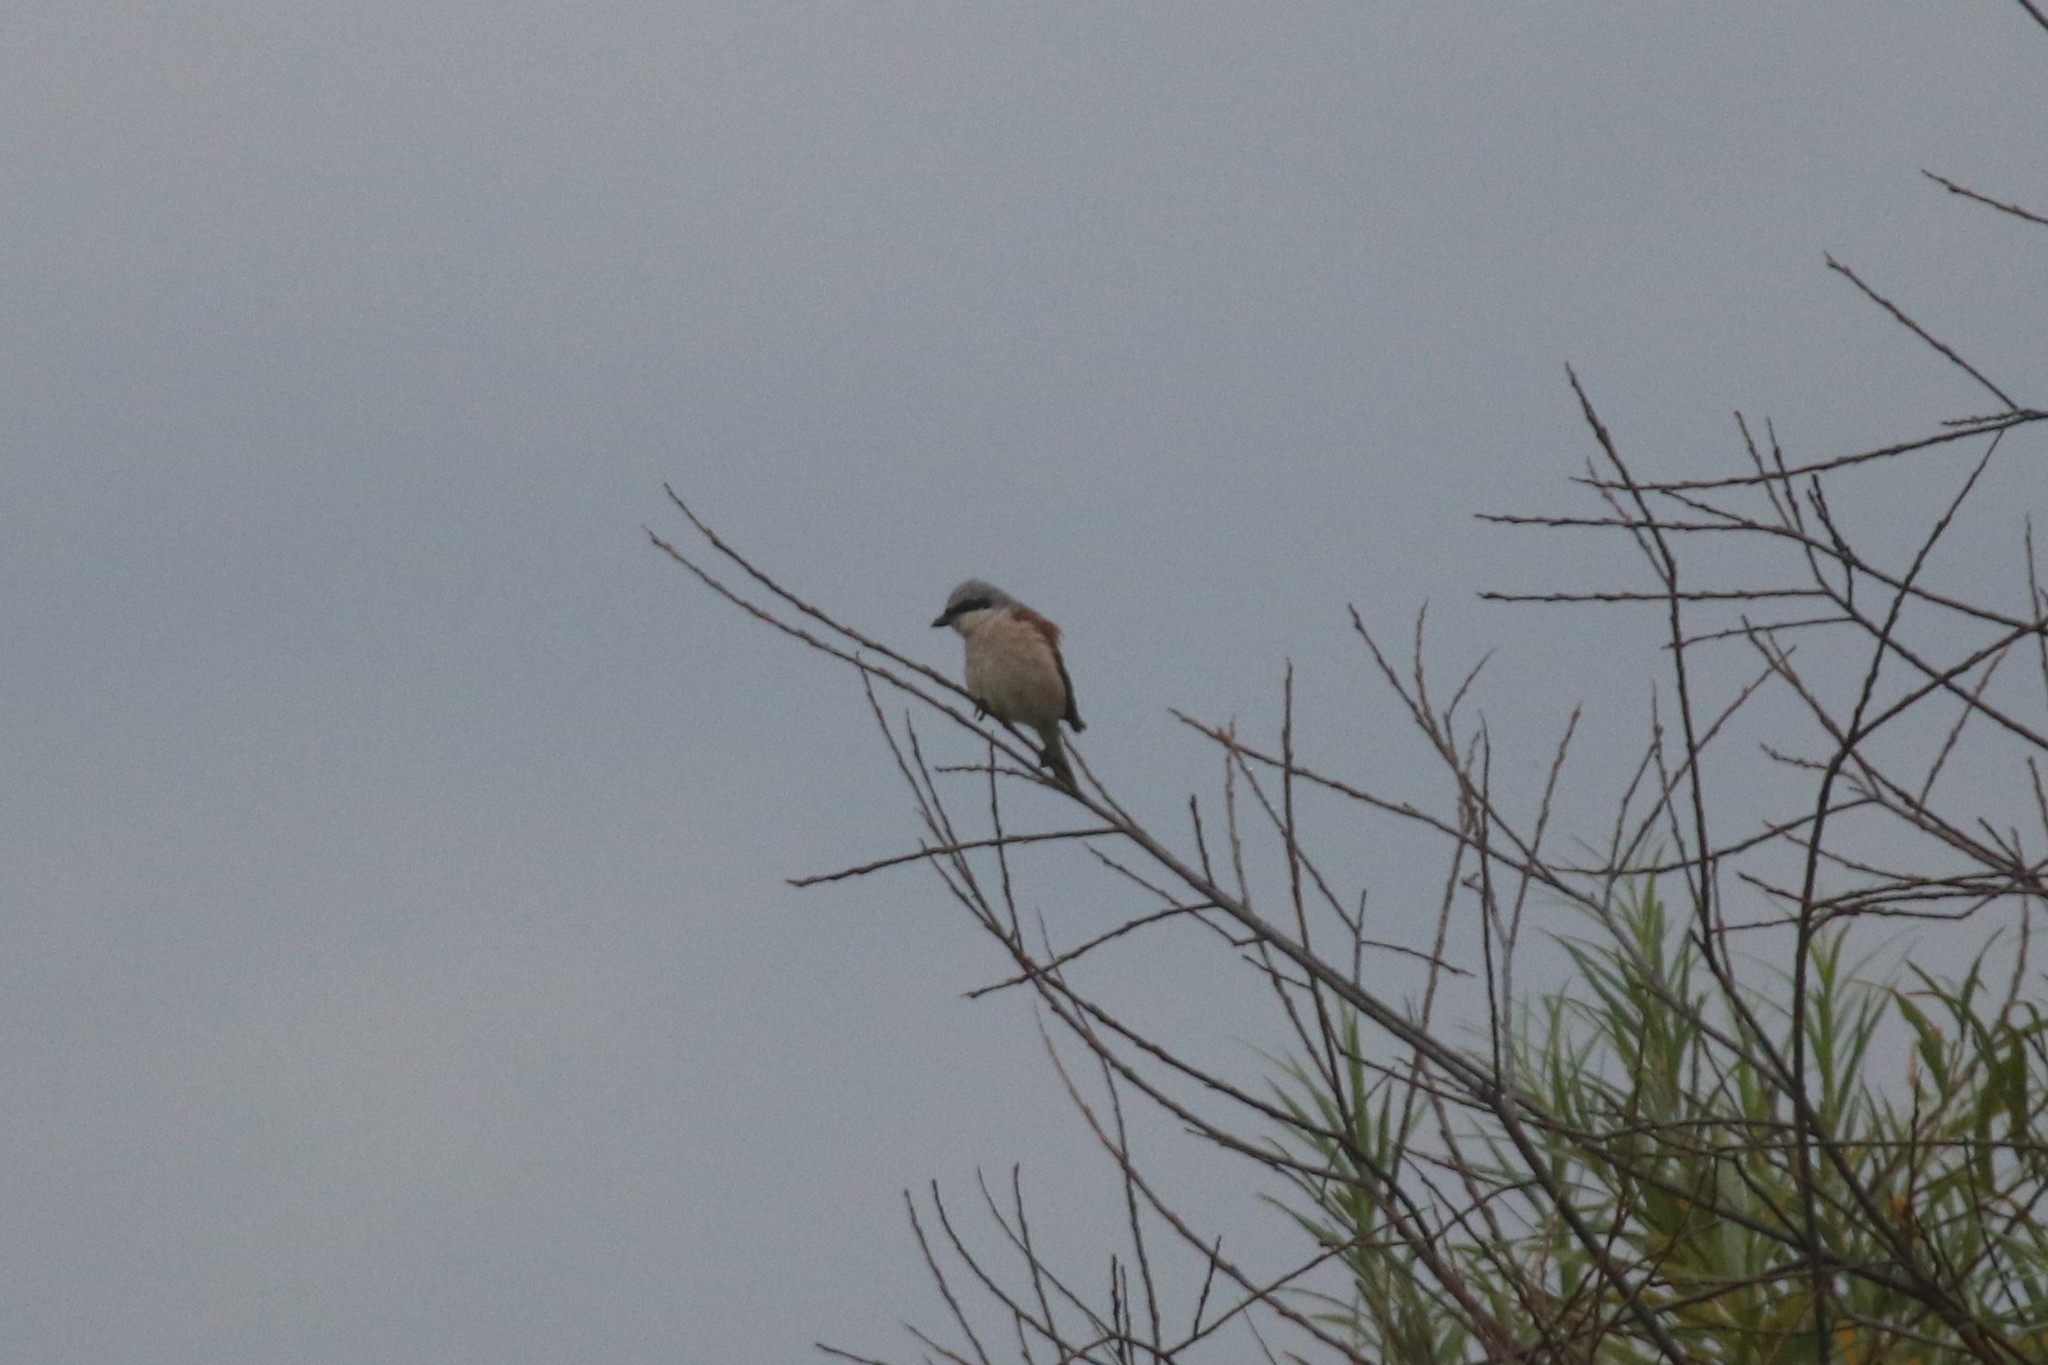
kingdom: Animalia
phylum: Chordata
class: Aves
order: Passeriformes
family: Laniidae
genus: Lanius
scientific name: Lanius collurio
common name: Red-backed shrike
